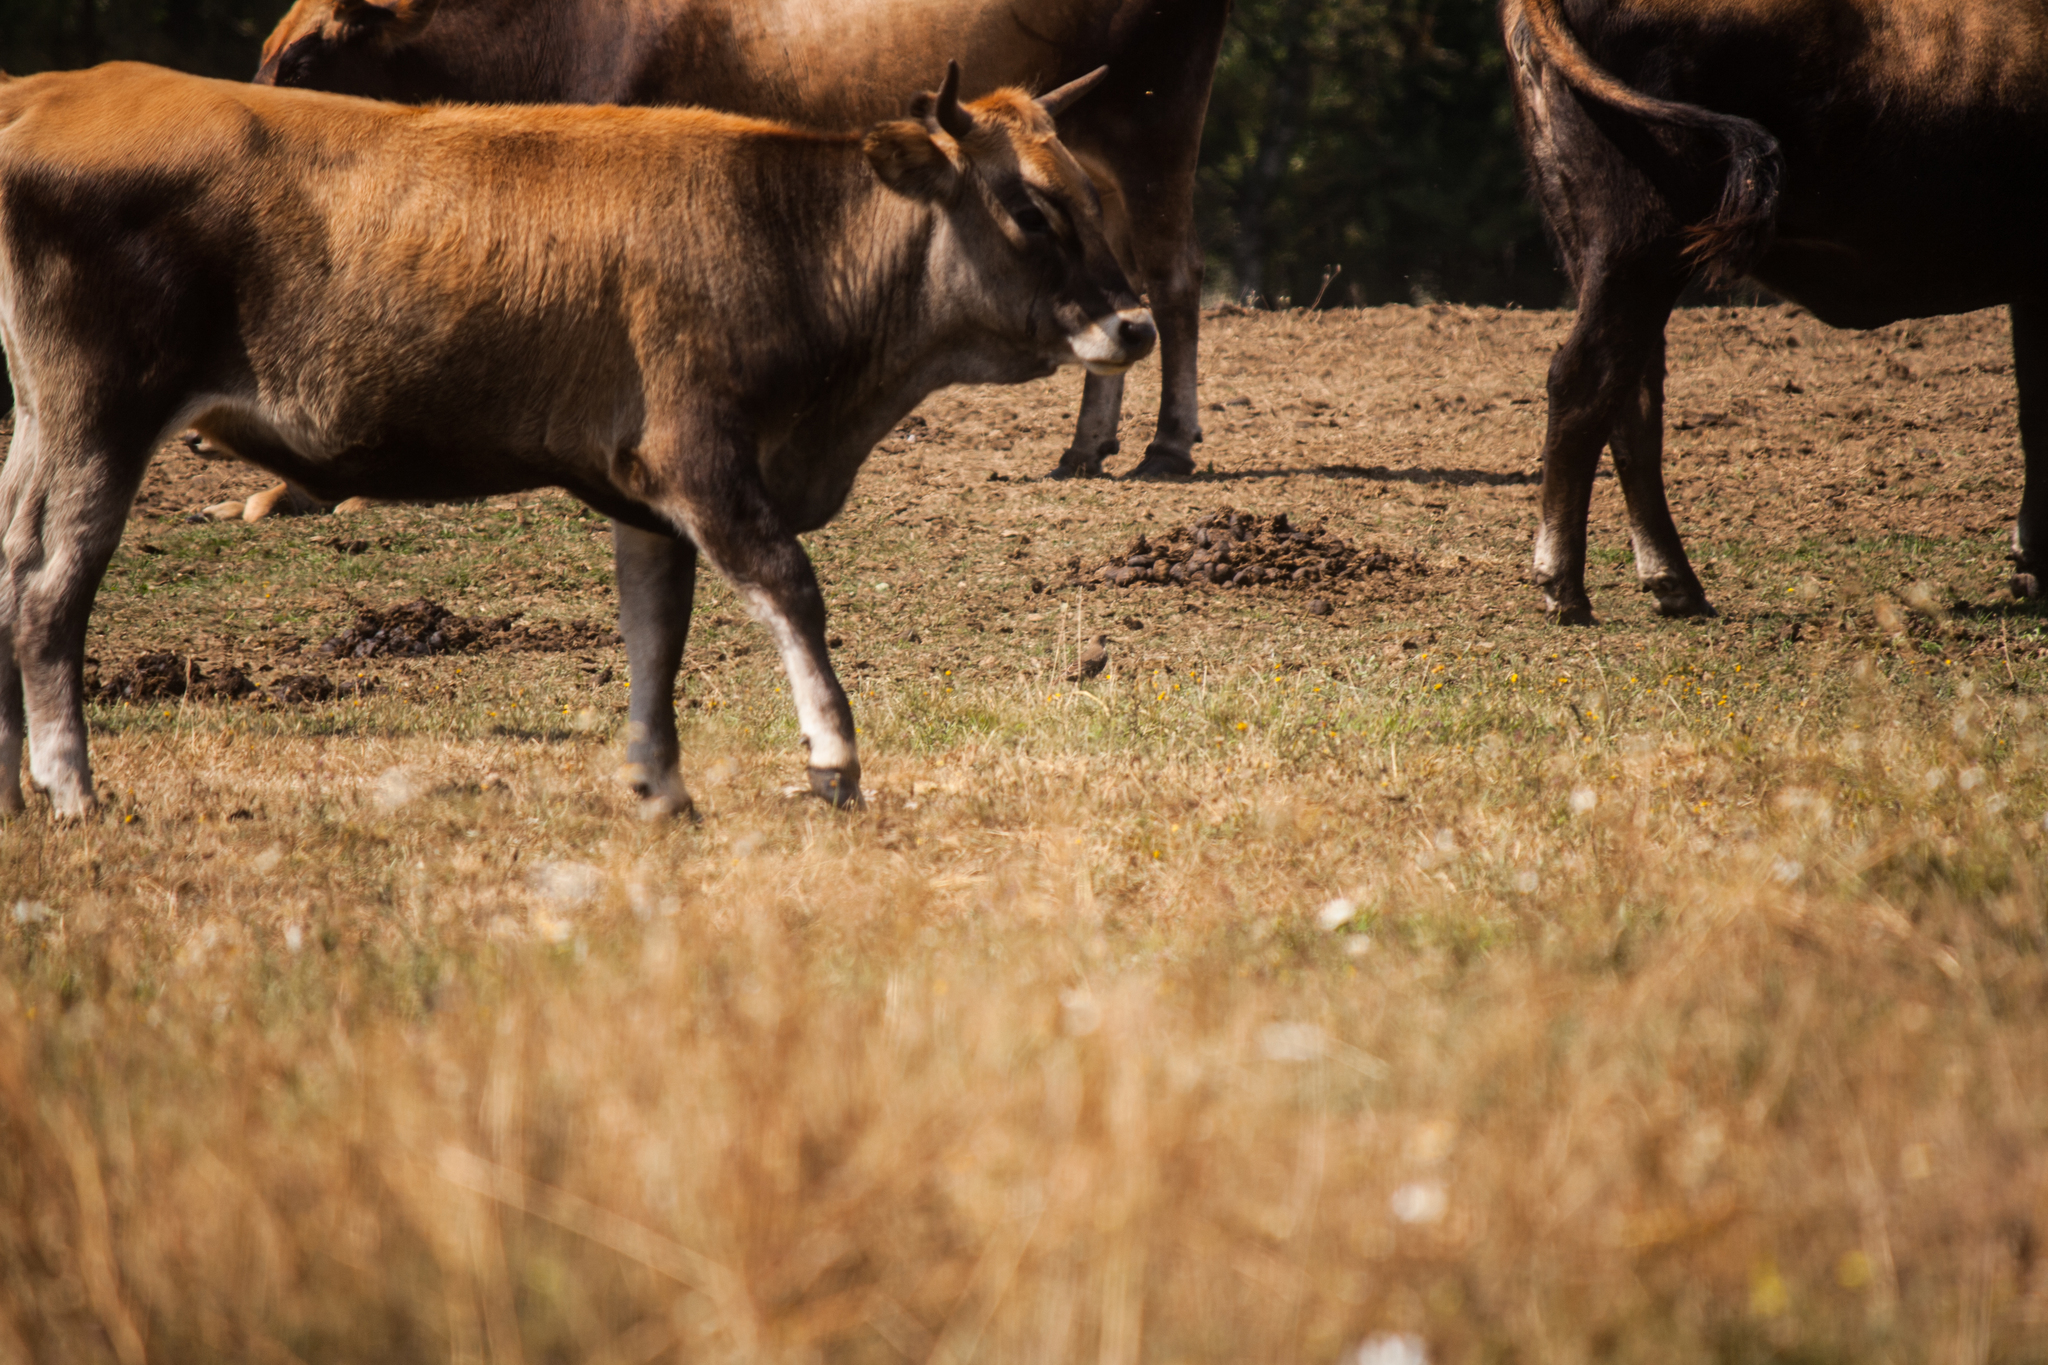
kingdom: Animalia
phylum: Chordata
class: Aves
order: Passeriformes
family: Sturnidae
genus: Sturnus
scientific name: Sturnus vulgaris
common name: Common starling
